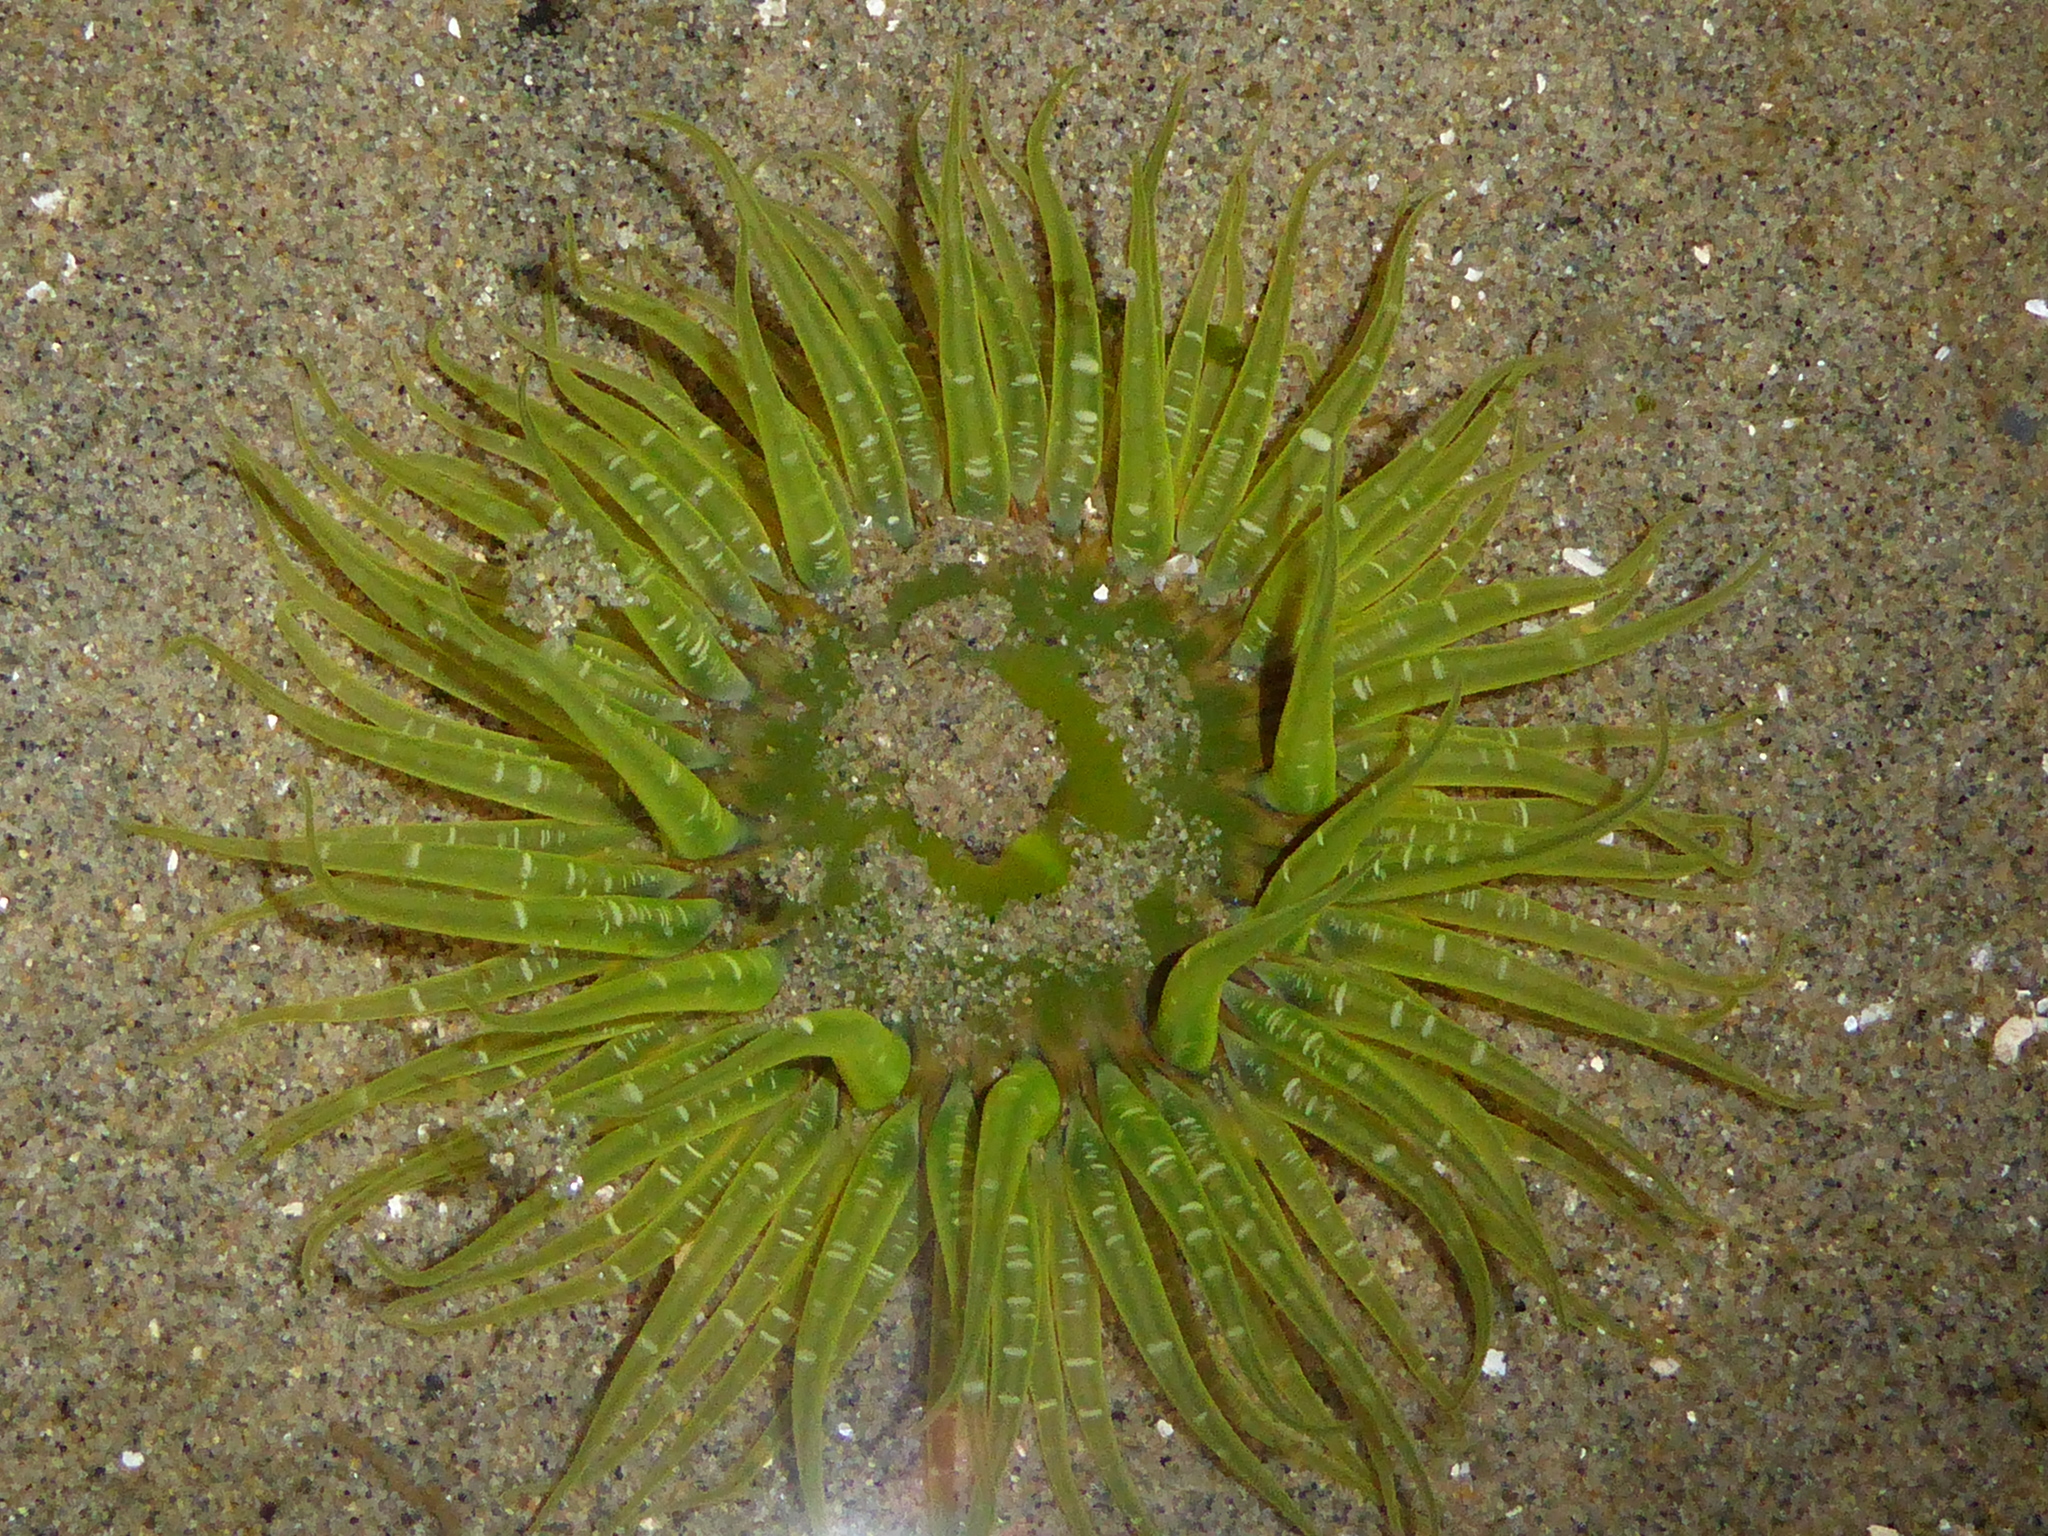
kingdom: Animalia
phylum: Cnidaria
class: Anthozoa
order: Actiniaria
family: Actiniidae
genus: Anthopleura
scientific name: Anthopleura artemisia
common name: Buried sea anemone
